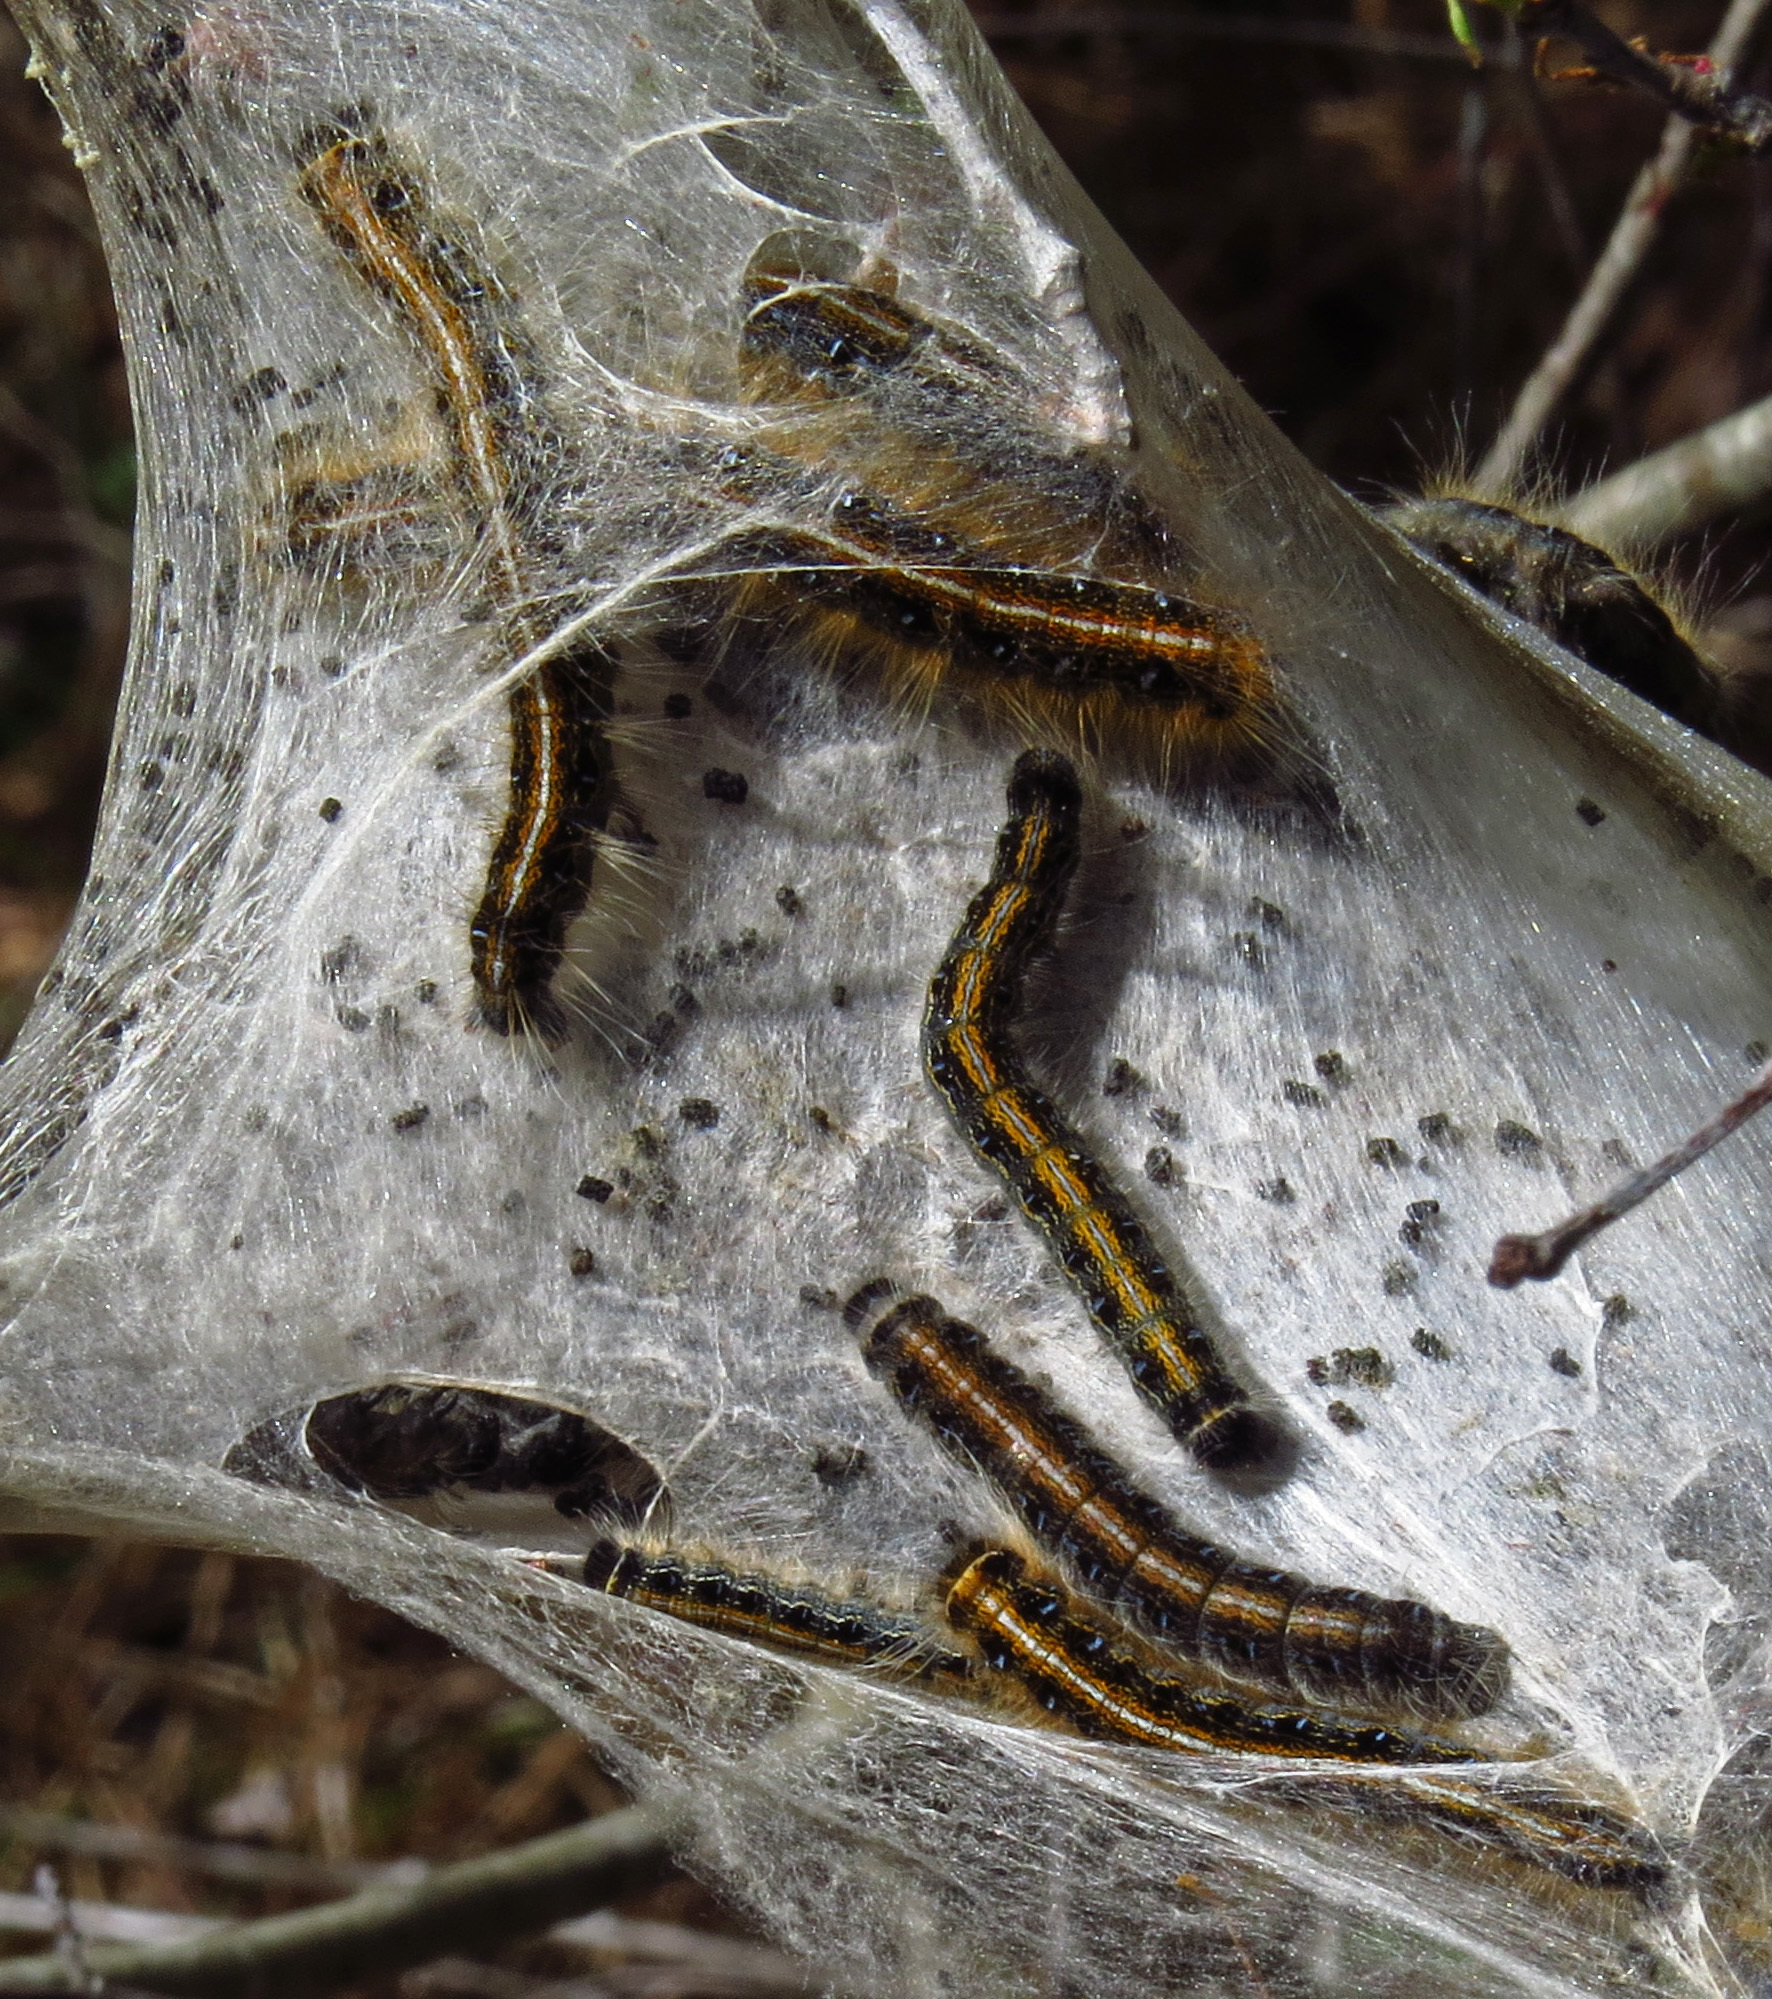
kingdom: Animalia
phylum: Arthropoda
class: Insecta
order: Lepidoptera
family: Lasiocampidae
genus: Malacosoma
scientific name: Malacosoma americana
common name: Eastern tent caterpillar moth
